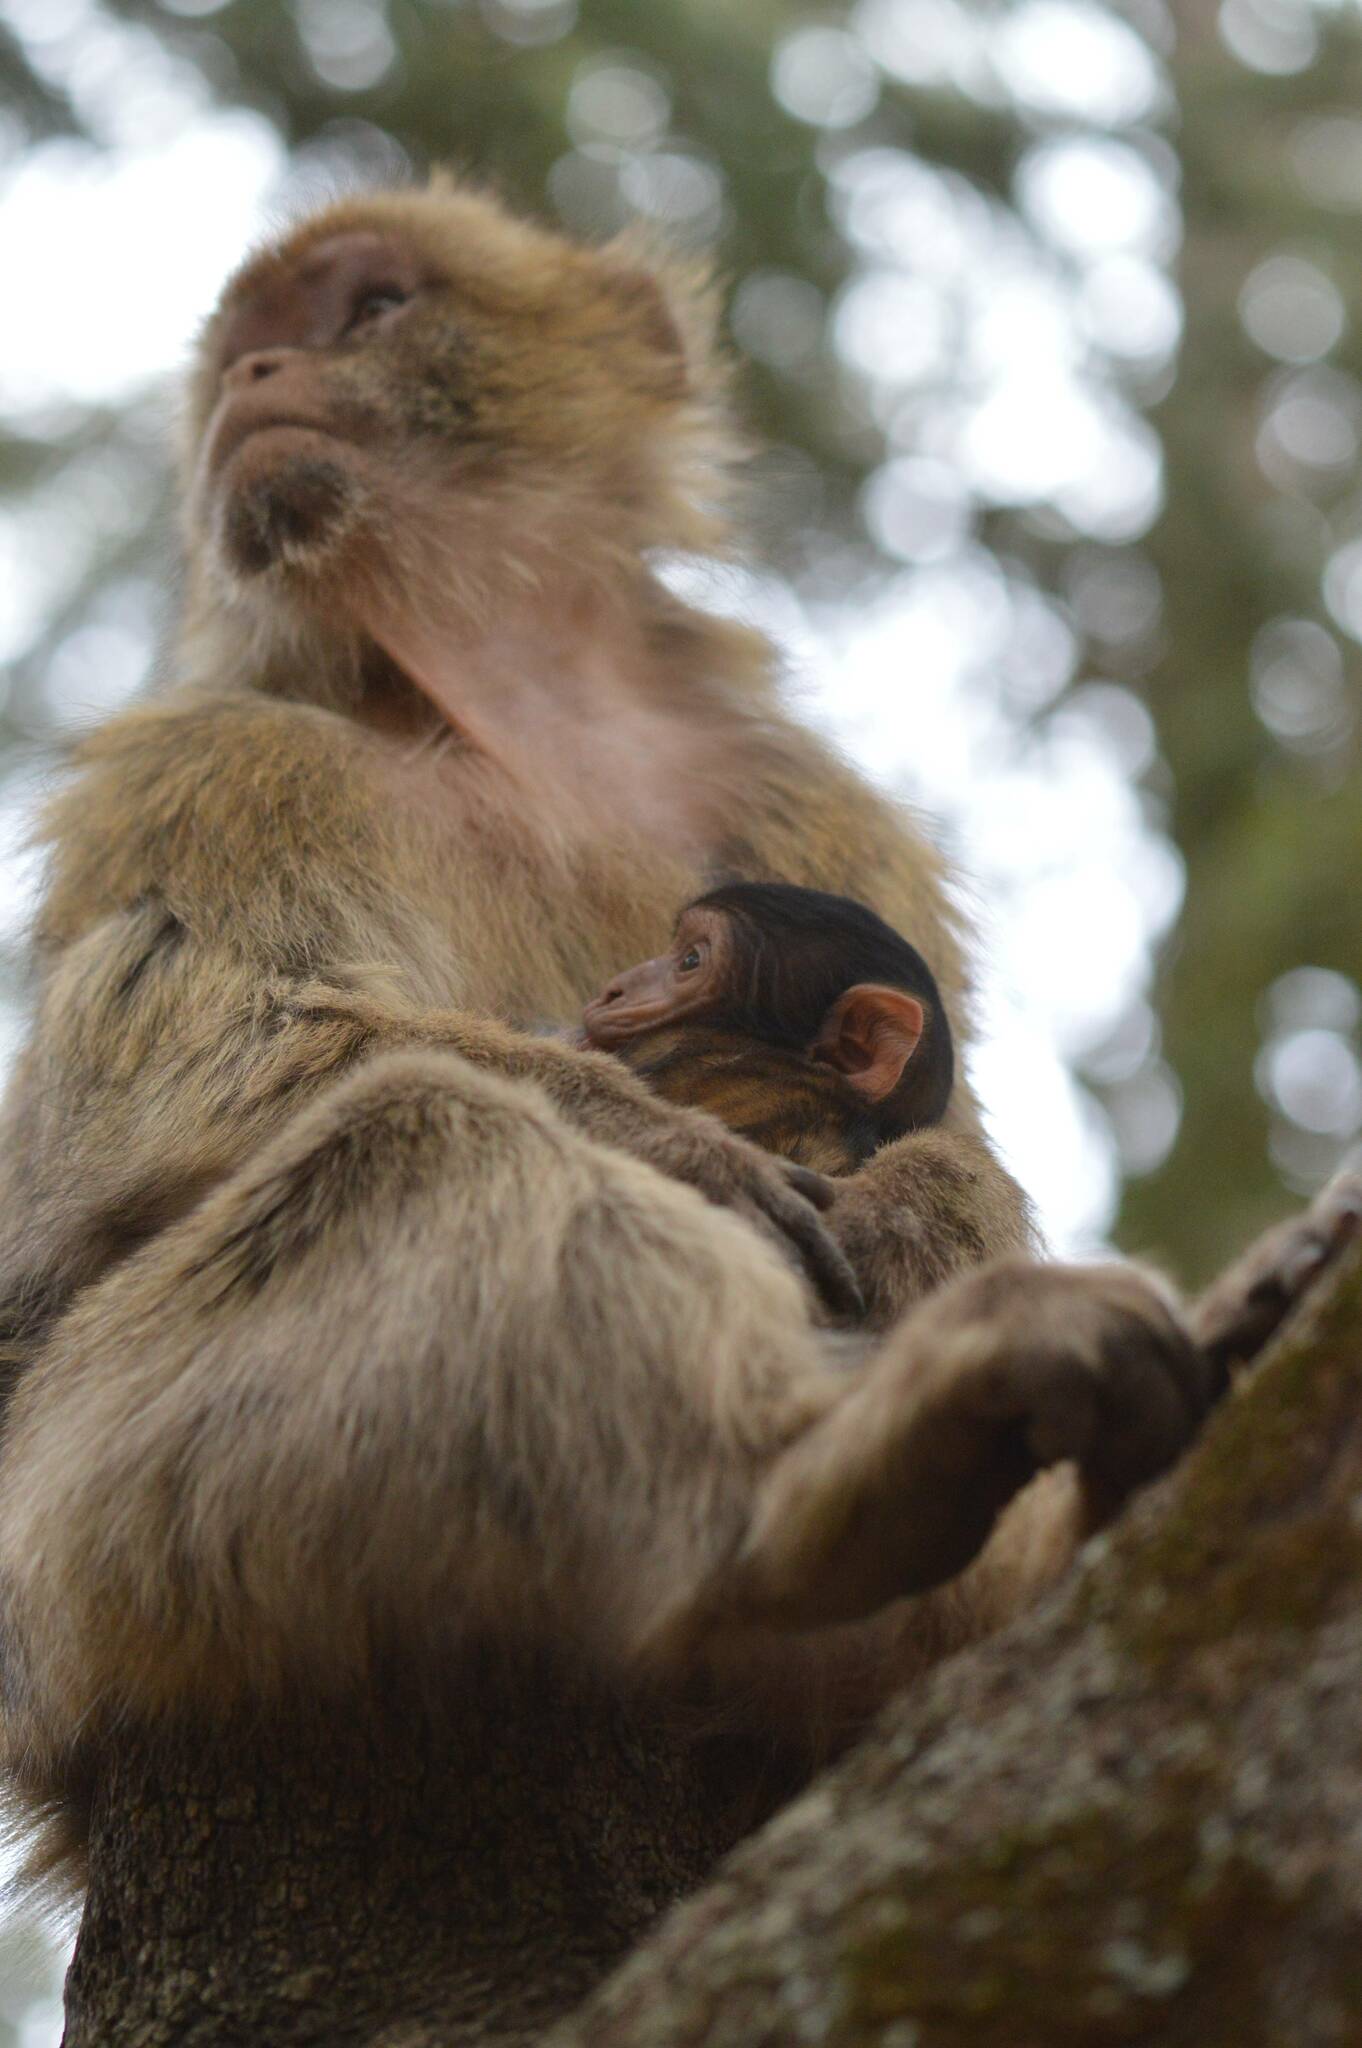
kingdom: Animalia
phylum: Chordata
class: Mammalia
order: Primates
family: Cercopithecidae
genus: Macaca
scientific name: Macaca sylvanus
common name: Barbary macaque
